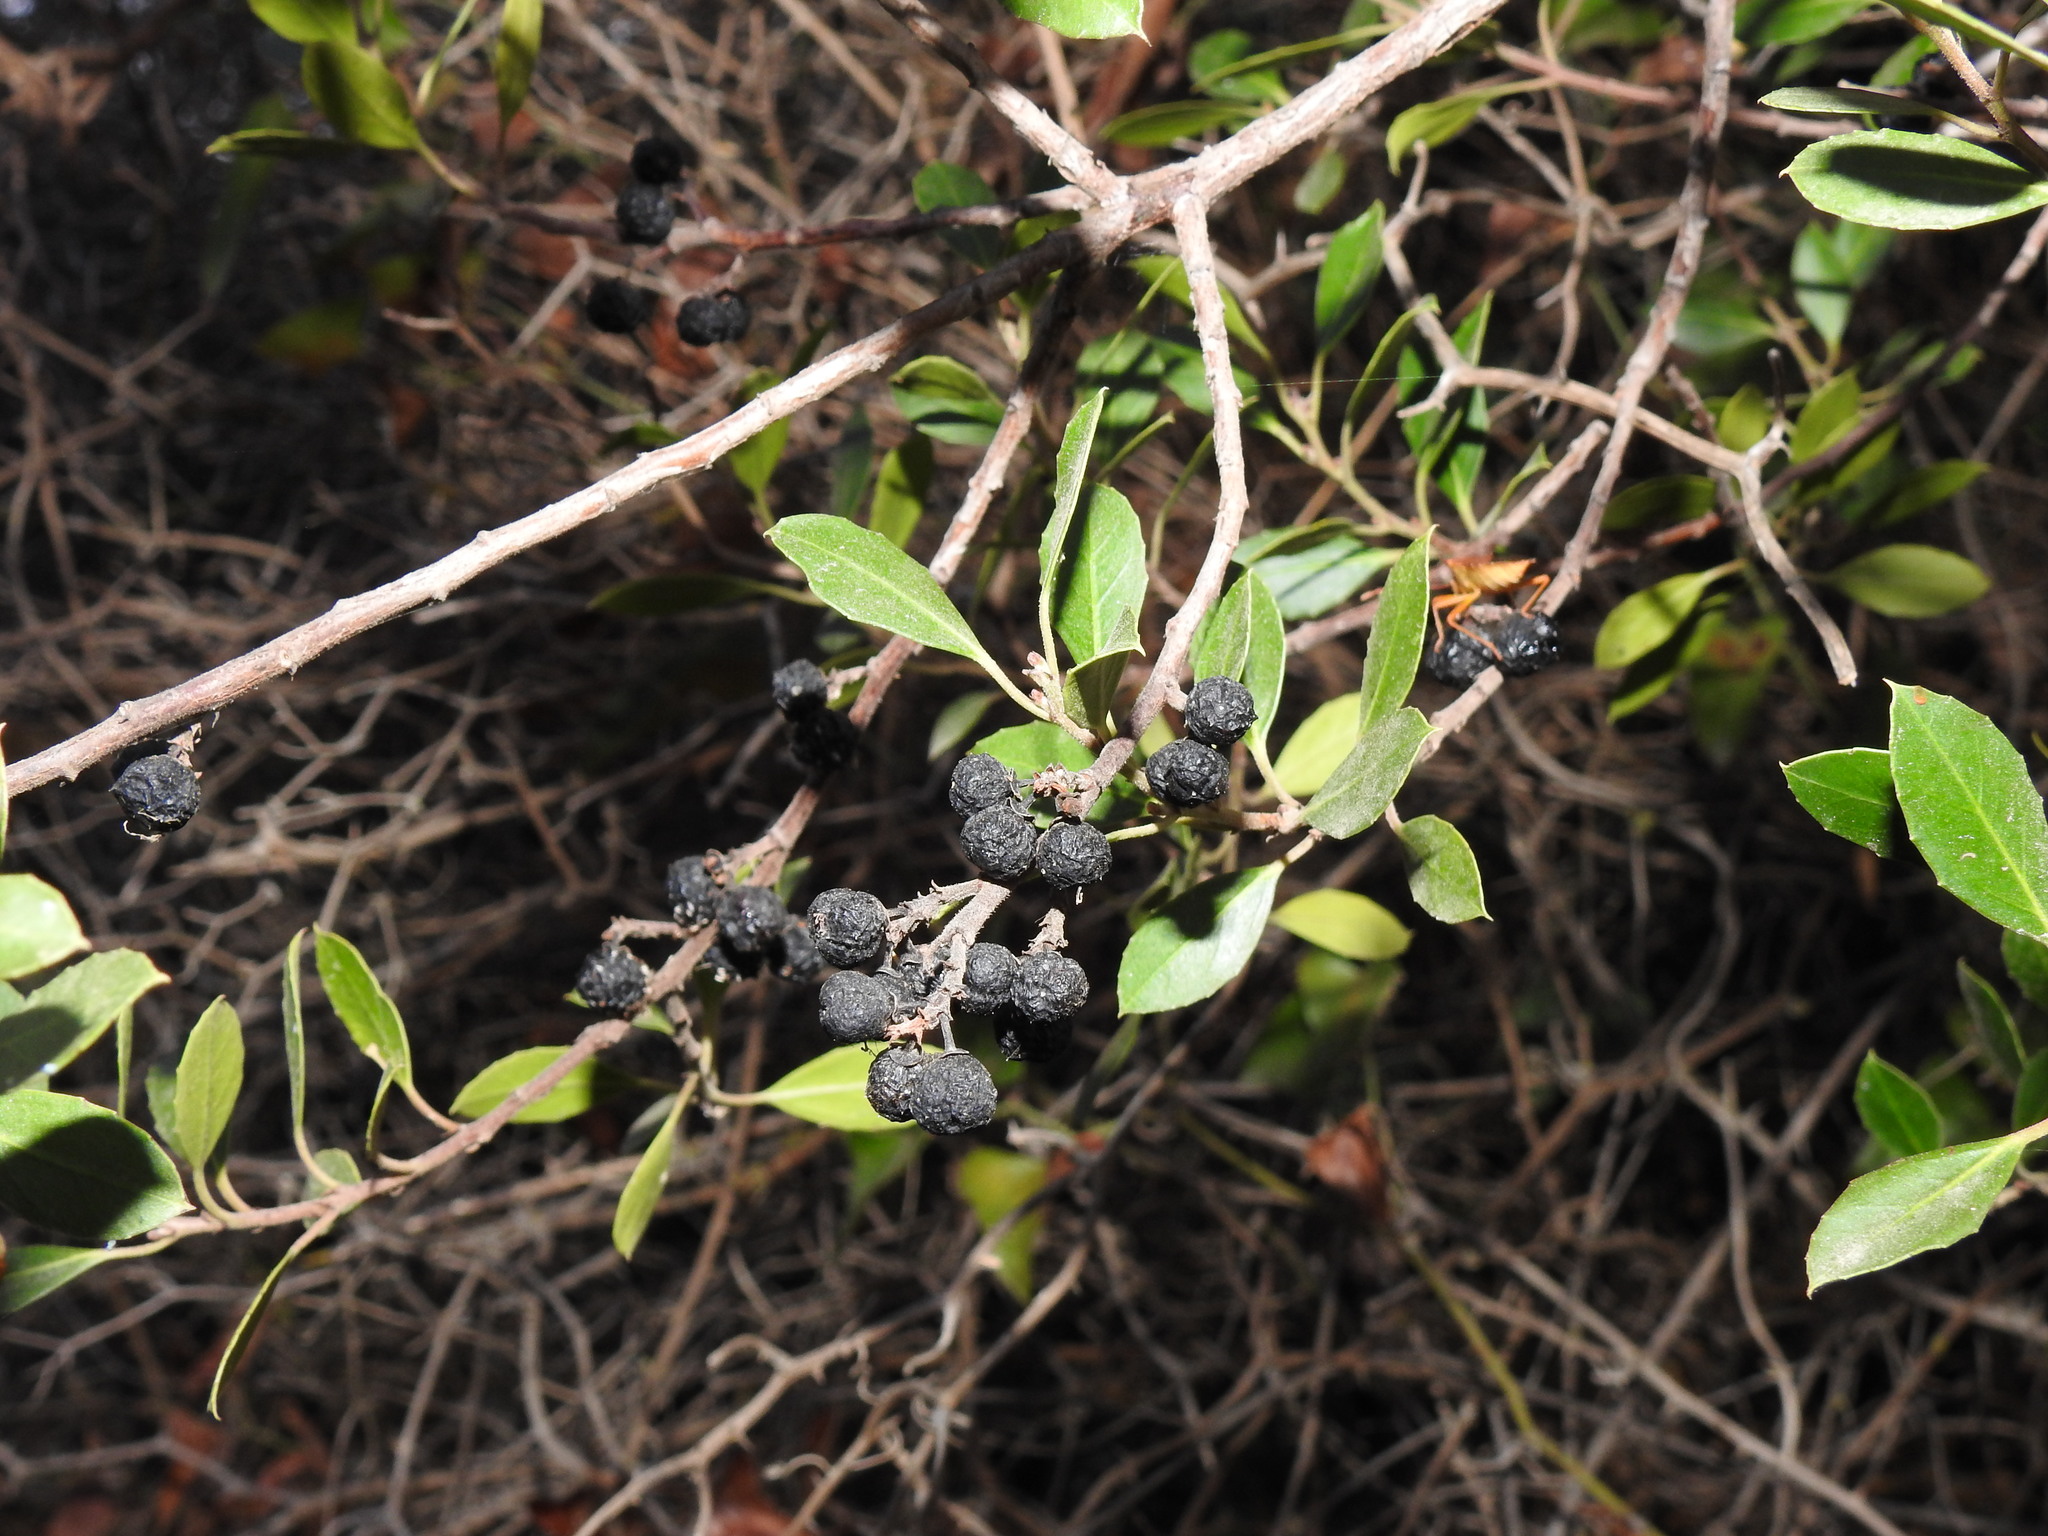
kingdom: Plantae
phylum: Tracheophyta
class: Magnoliopsida
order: Rosales
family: Rhamnaceae
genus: Rhamnus
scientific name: Rhamnus alaternus
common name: Mediterranean buckthorn
